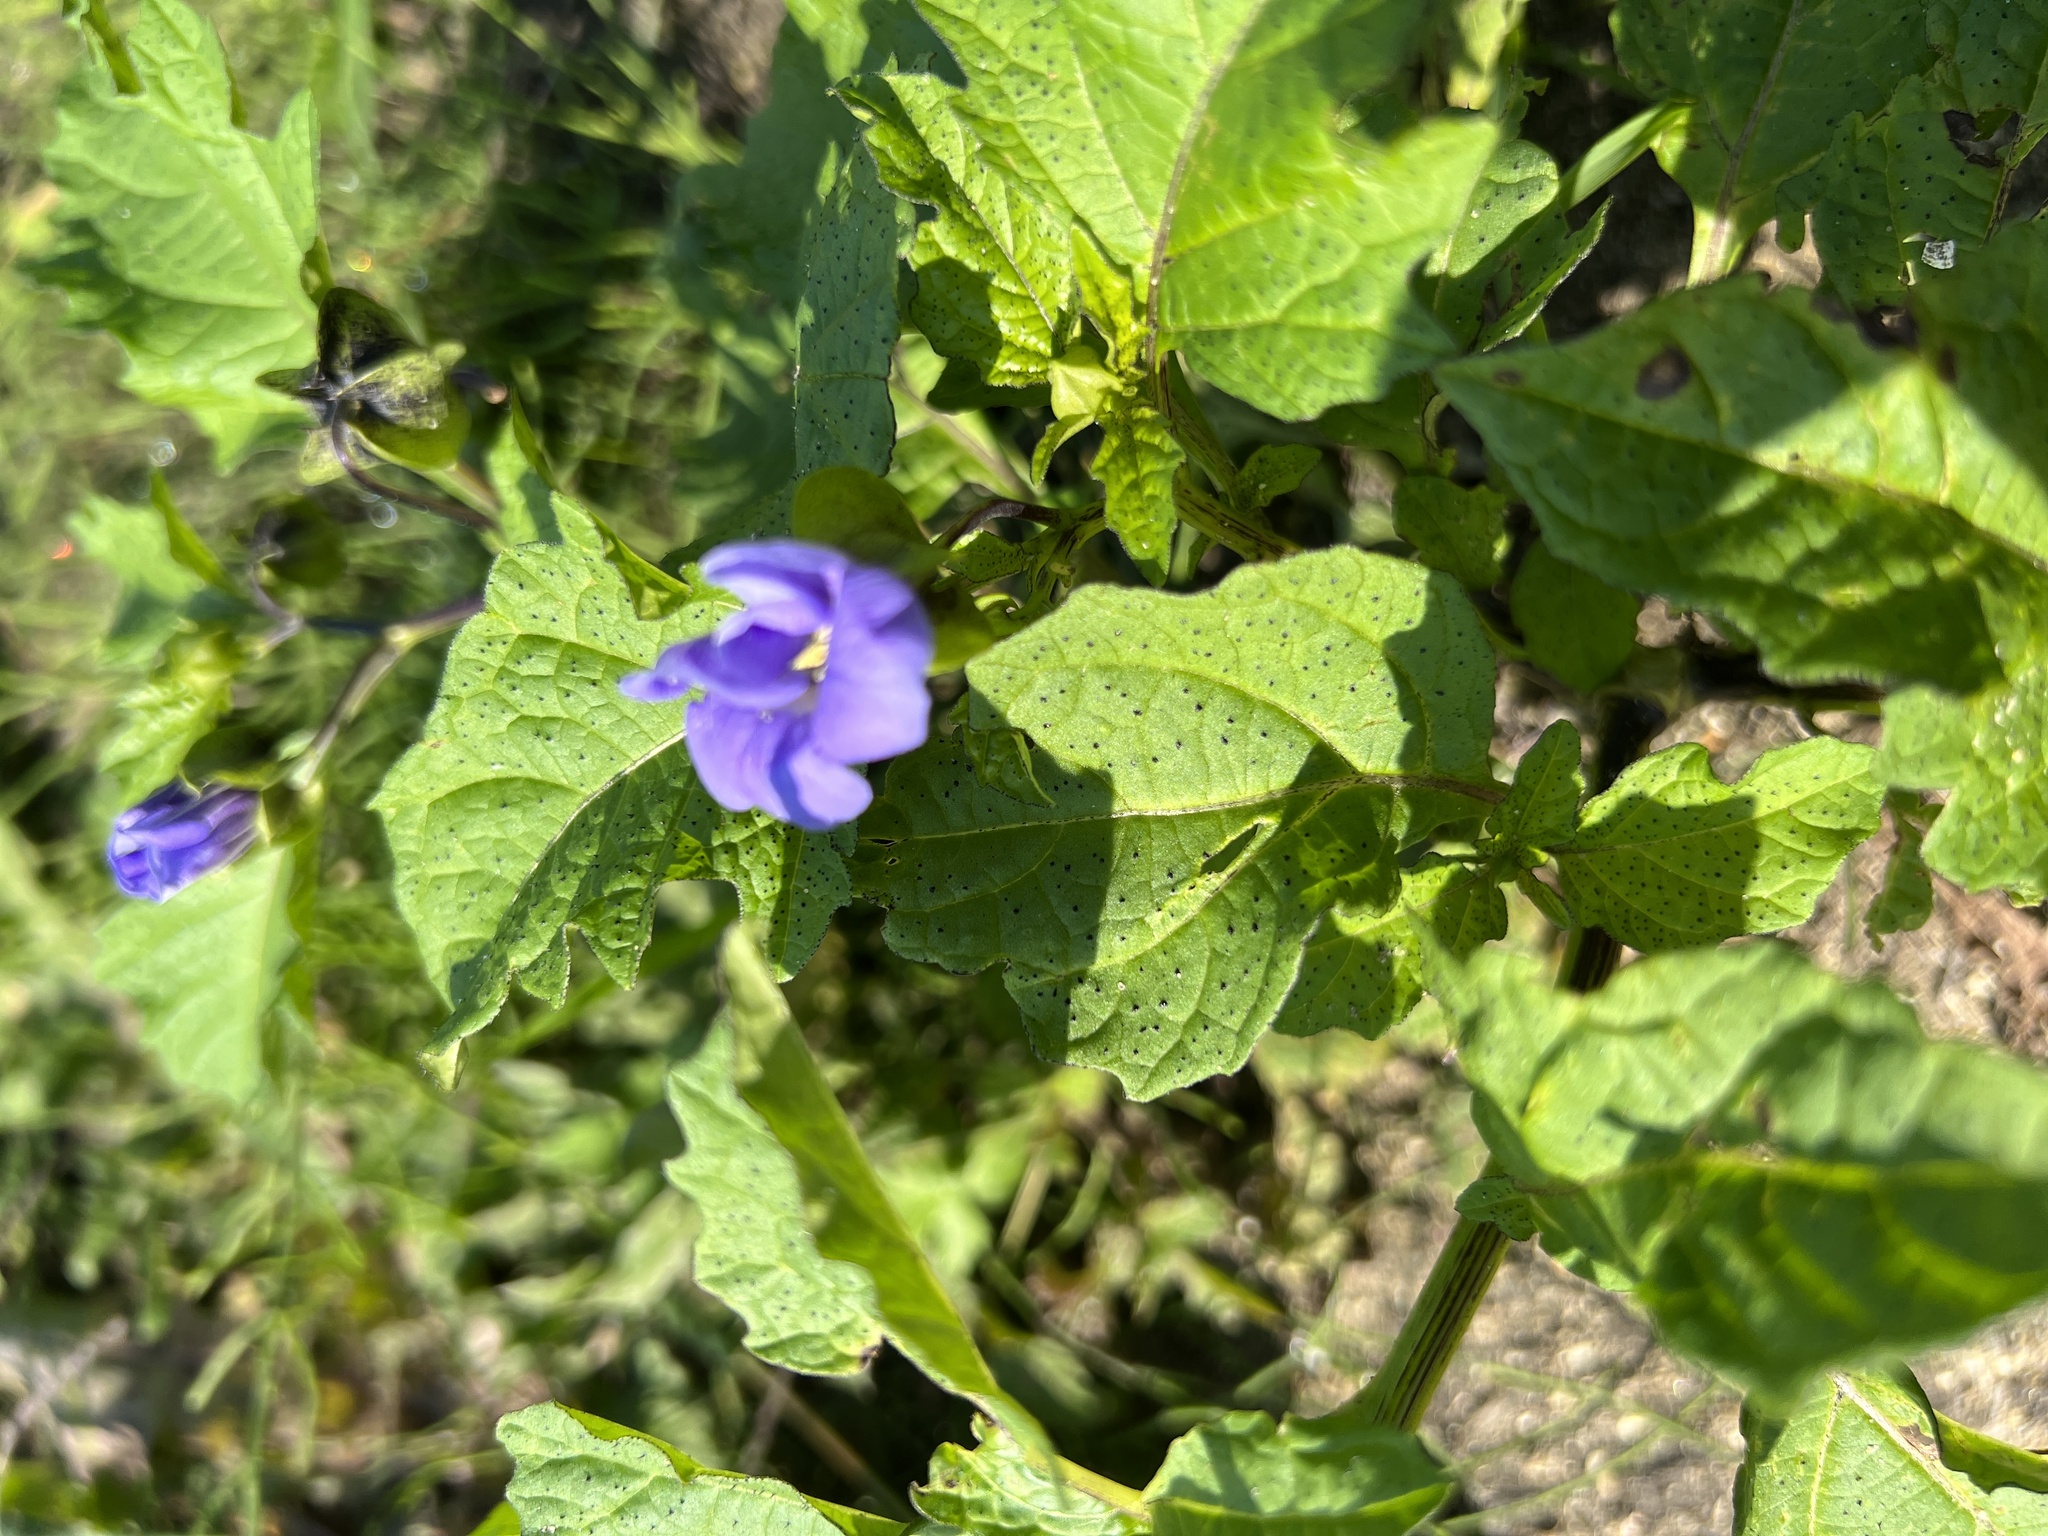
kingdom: Plantae
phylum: Tracheophyta
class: Magnoliopsida
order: Solanales
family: Solanaceae
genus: Nicandra
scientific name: Nicandra physalodes
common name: Apple-of-peru
